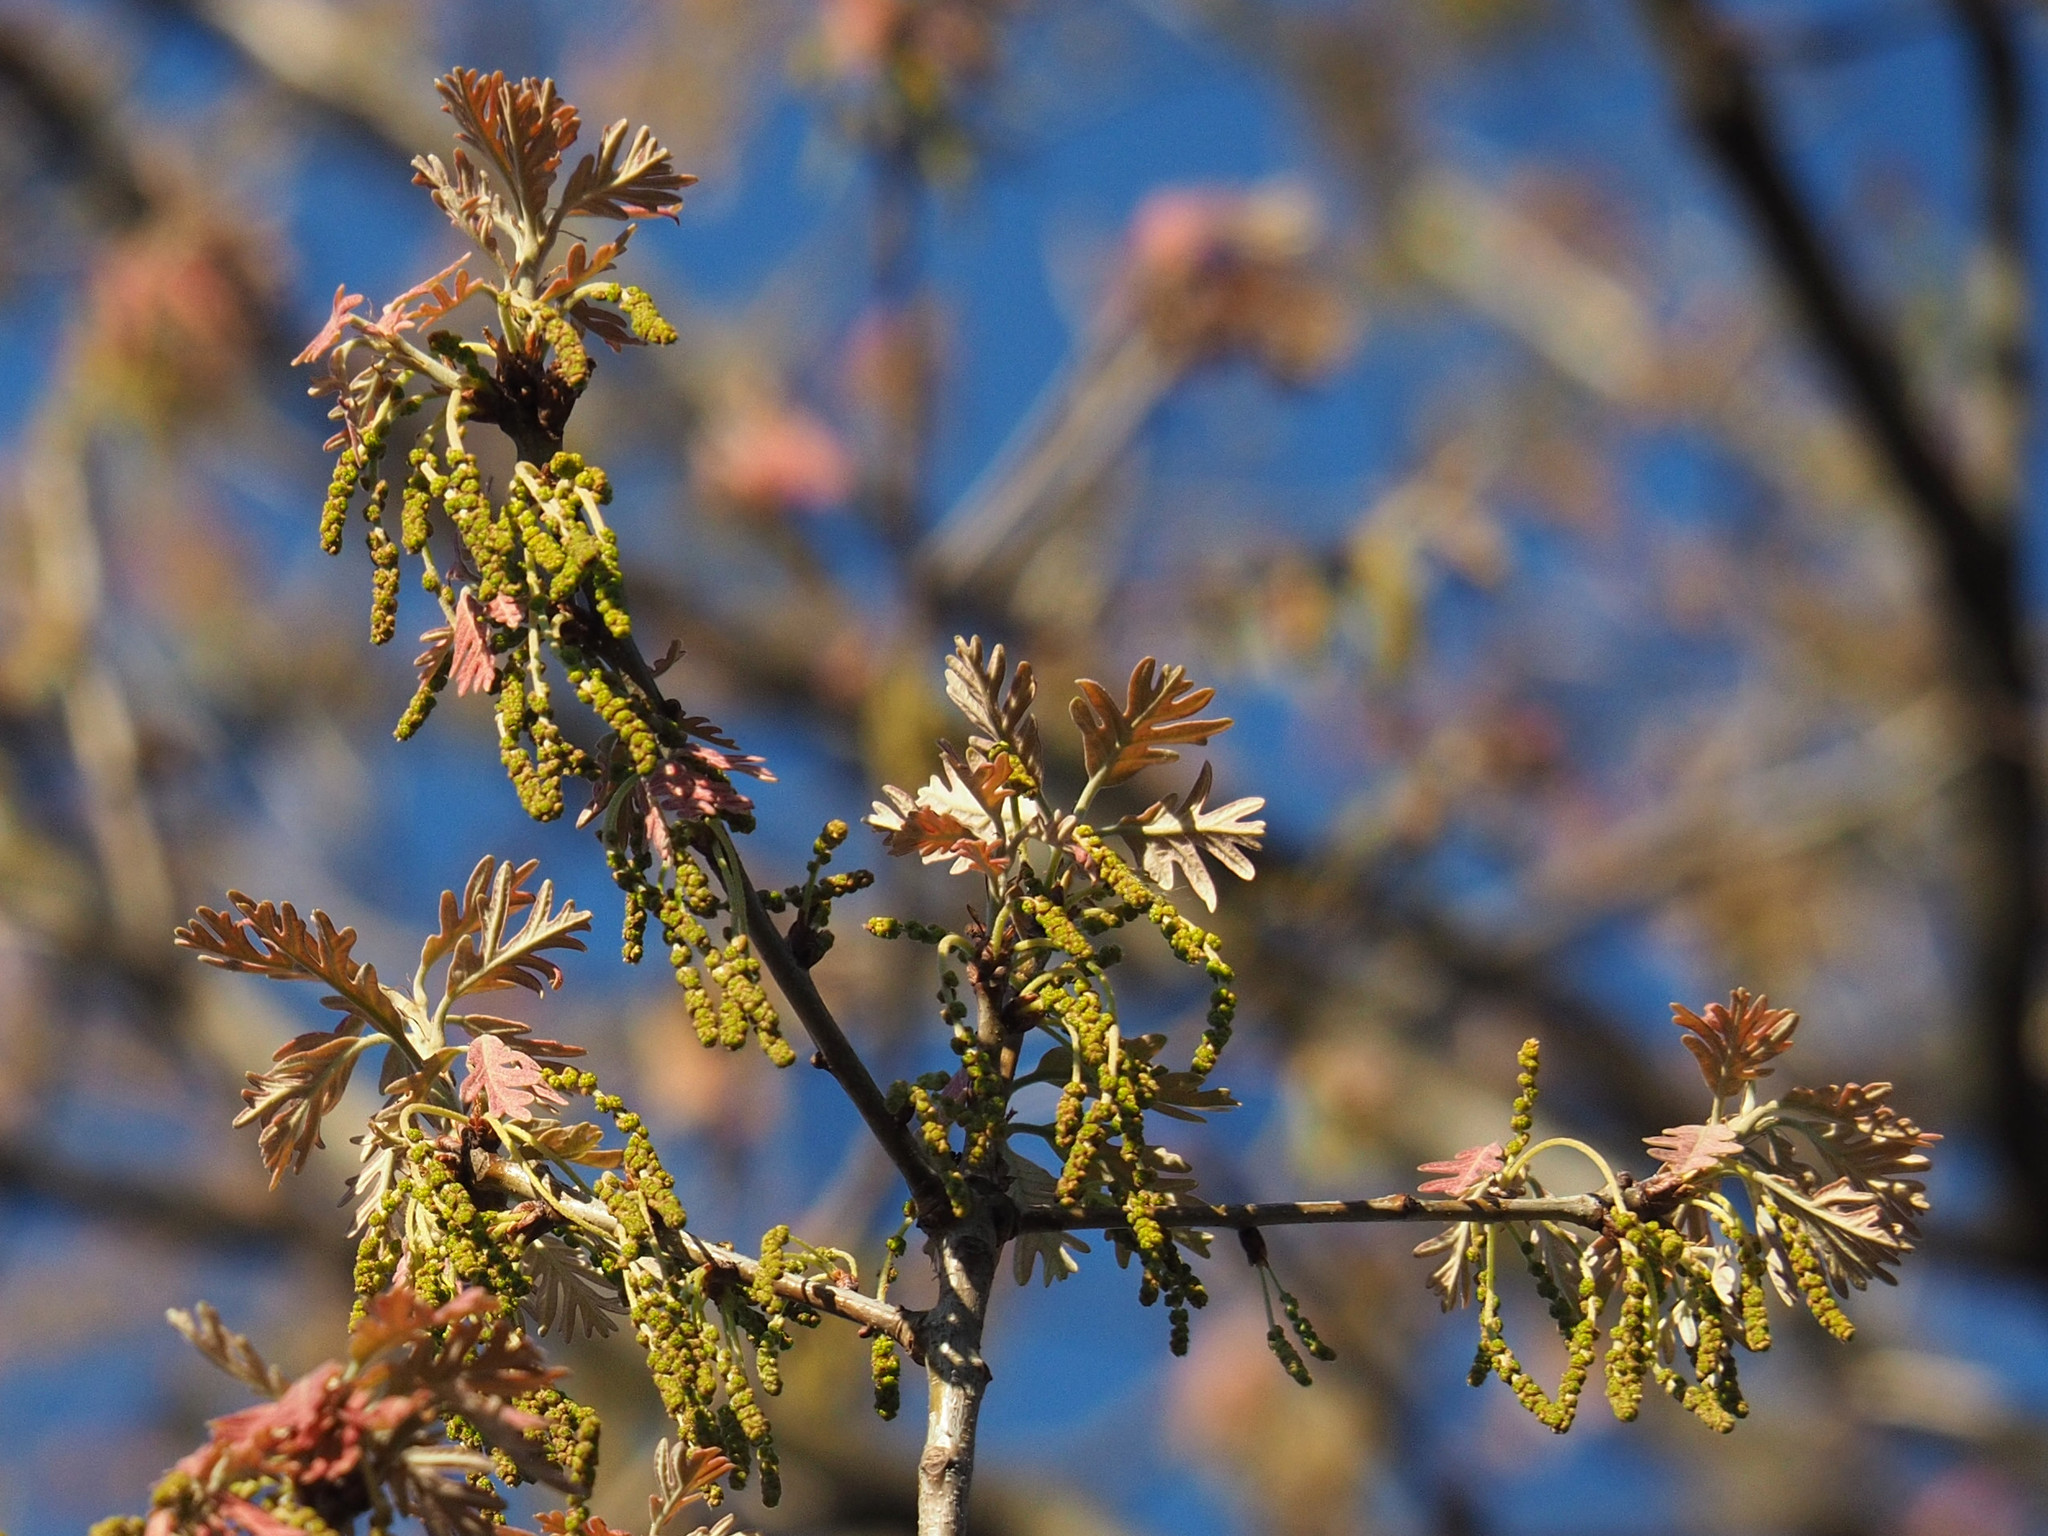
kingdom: Plantae
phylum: Tracheophyta
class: Magnoliopsida
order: Fagales
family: Fagaceae
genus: Quercus
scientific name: Quercus alba
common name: White oak
